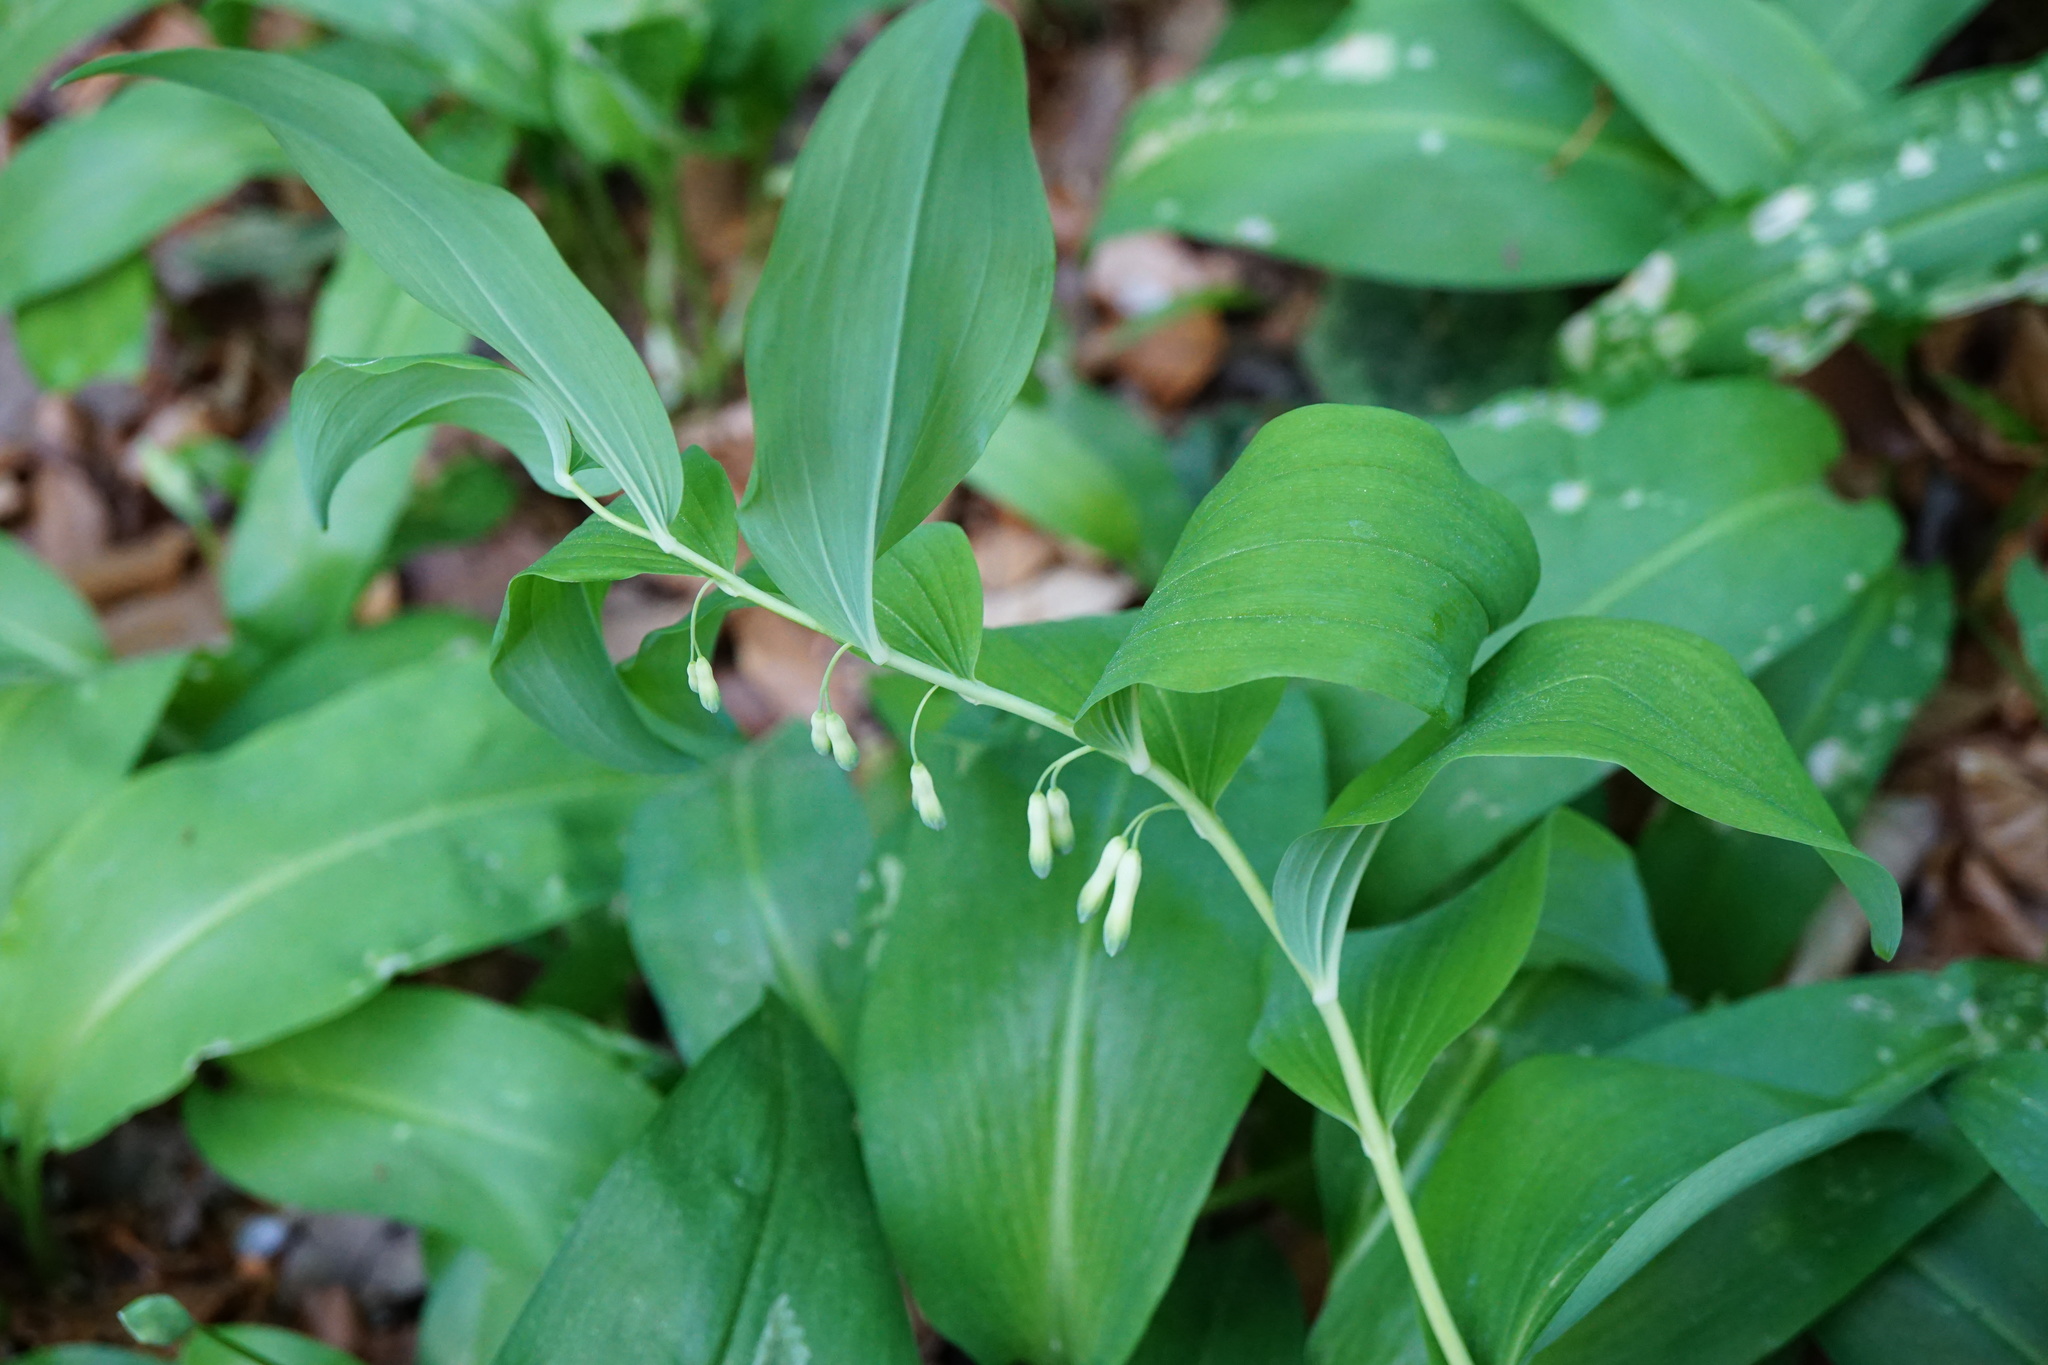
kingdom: Plantae
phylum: Tracheophyta
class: Liliopsida
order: Asparagales
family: Asparagaceae
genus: Polygonatum
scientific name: Polygonatum multiflorum
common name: Solomon's-seal
